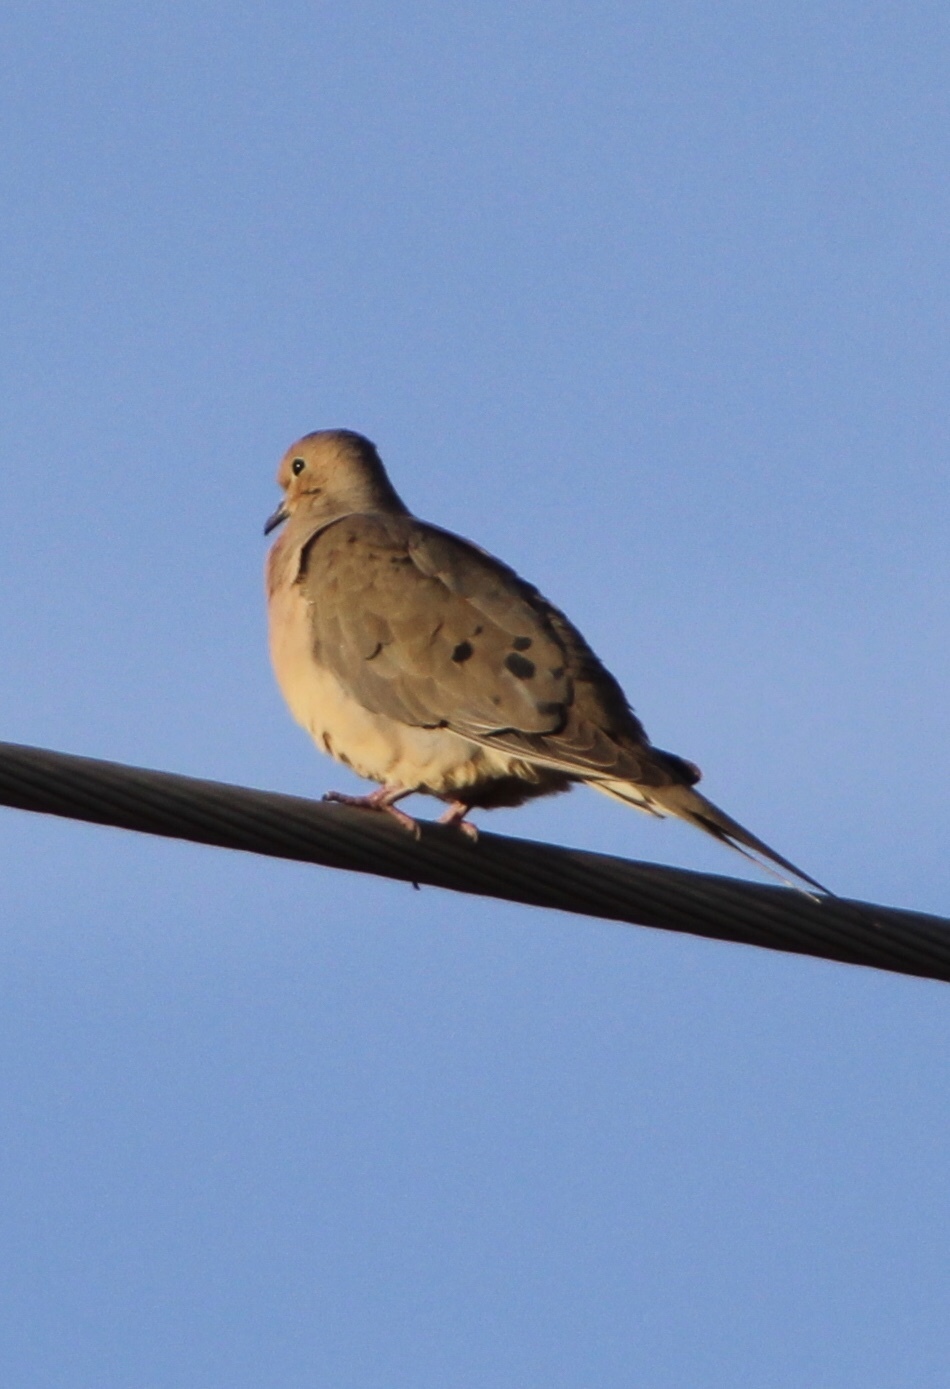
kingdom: Animalia
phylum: Chordata
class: Aves
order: Columbiformes
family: Columbidae
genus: Zenaida
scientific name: Zenaida macroura
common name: Mourning dove
